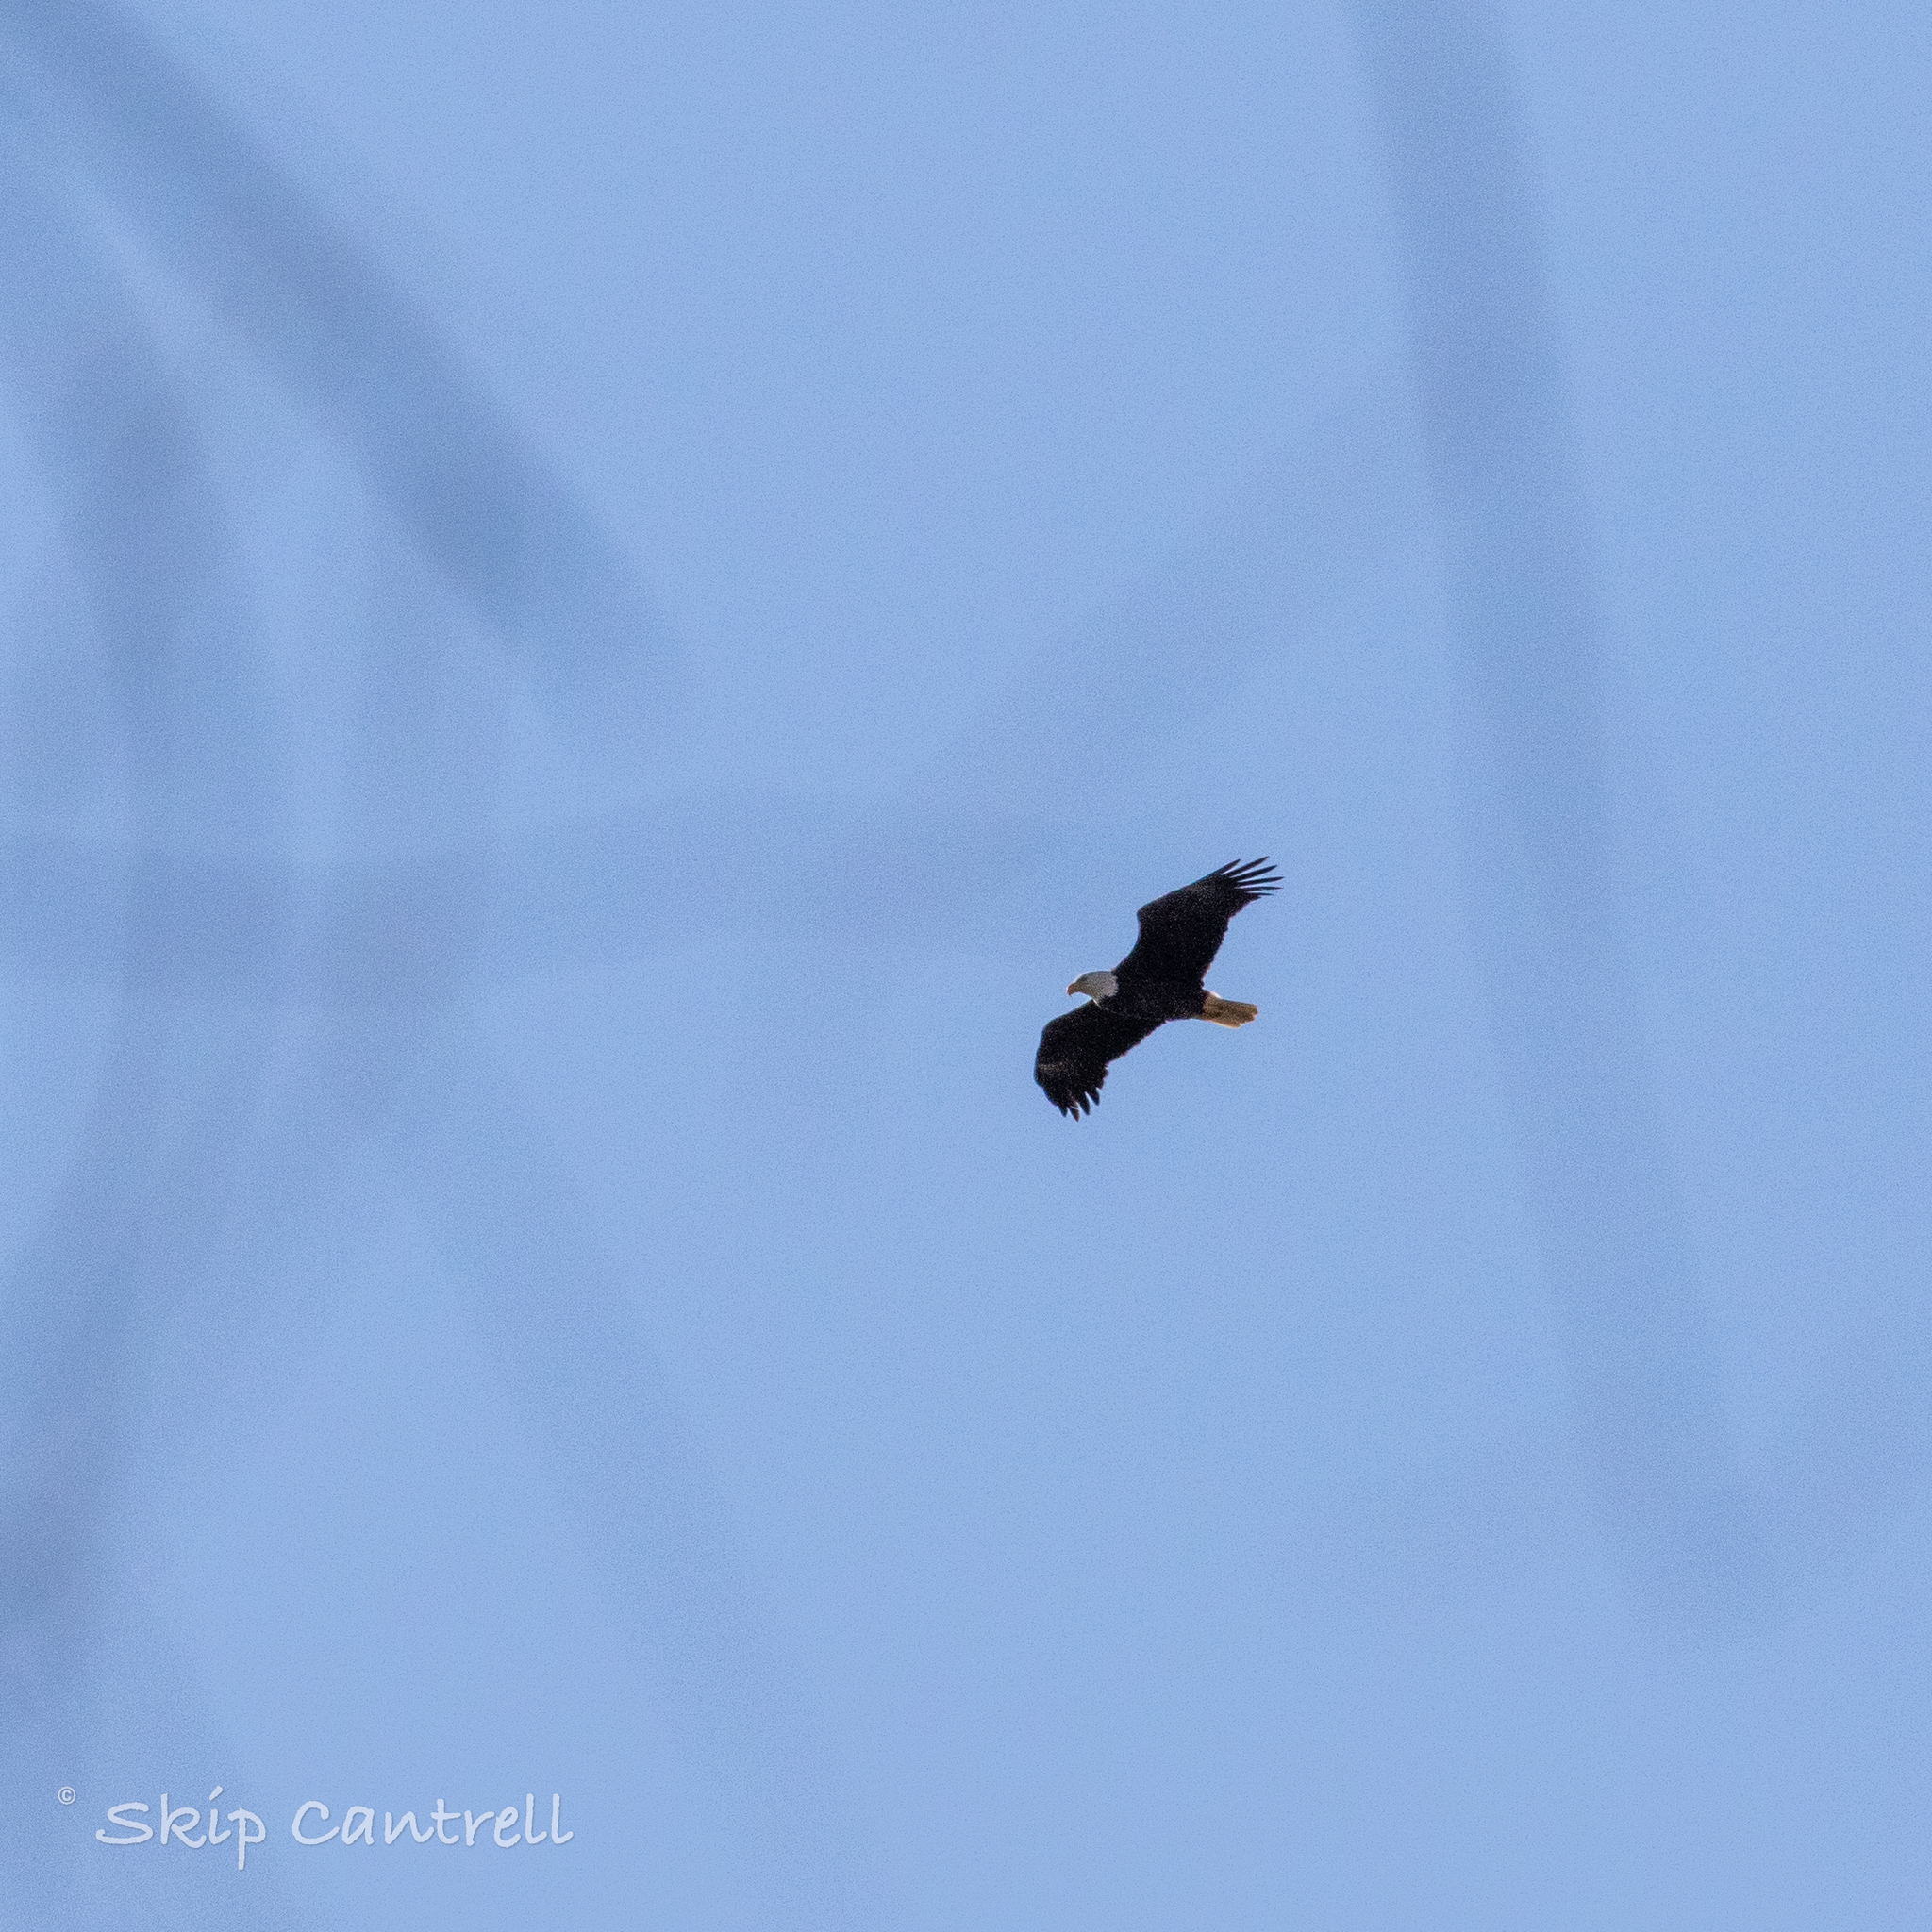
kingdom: Animalia
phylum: Chordata
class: Aves
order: Accipitriformes
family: Accipitridae
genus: Haliaeetus
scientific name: Haliaeetus leucocephalus
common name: Bald eagle
